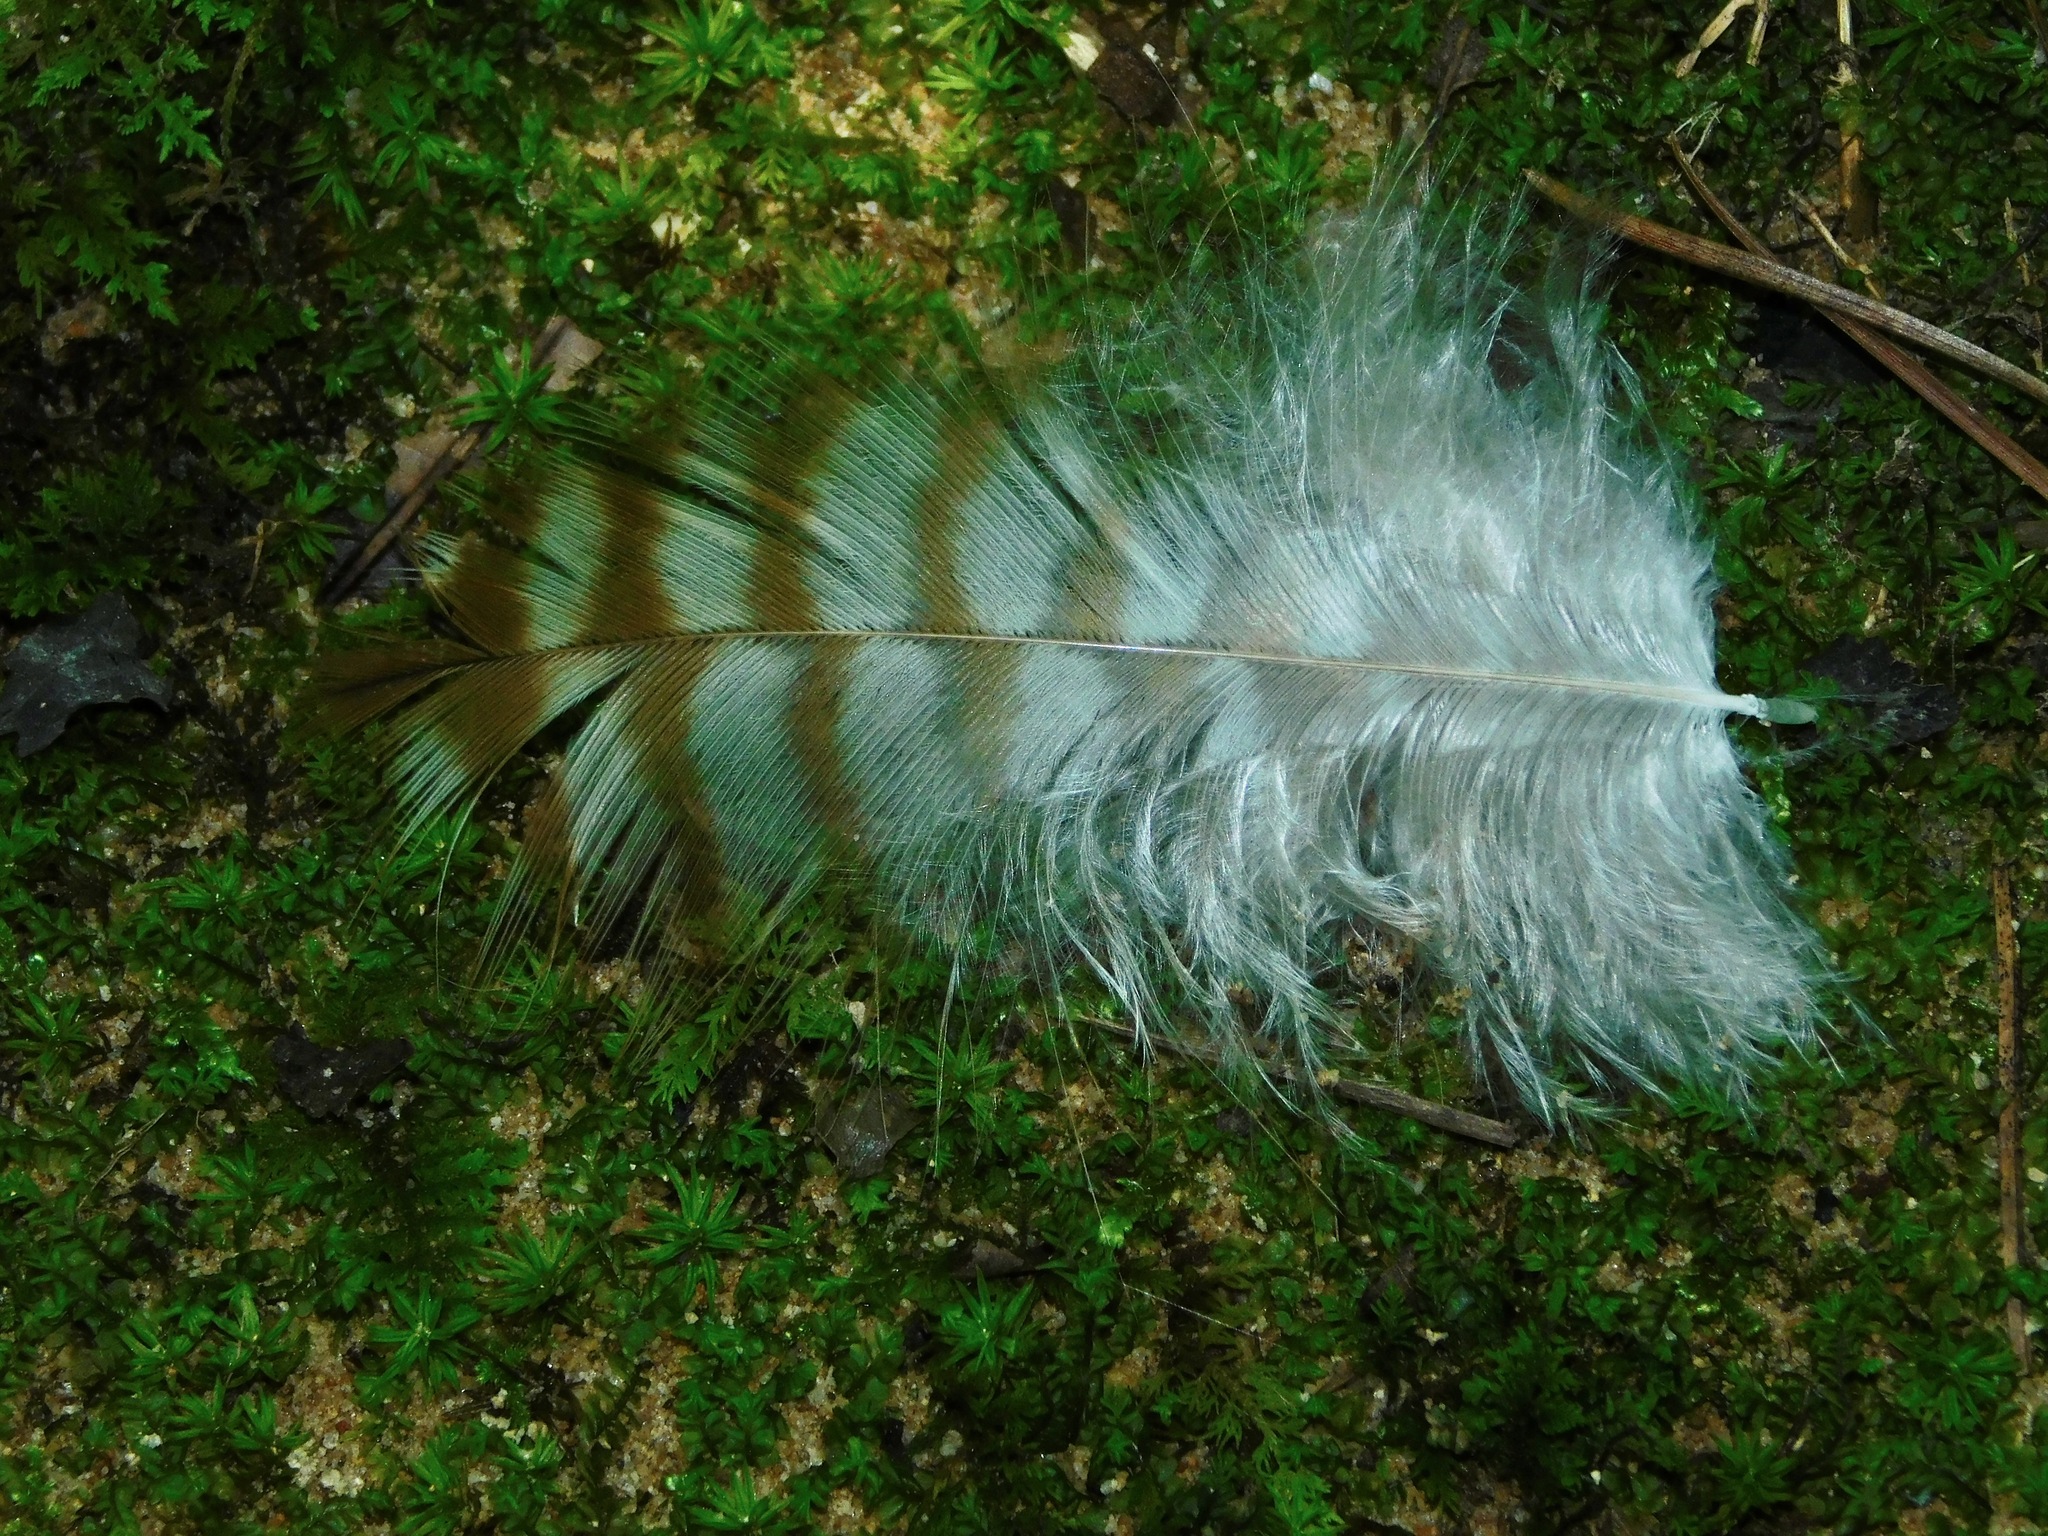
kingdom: Animalia
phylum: Chordata
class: Aves
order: Accipitriformes
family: Accipitridae
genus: Buteo
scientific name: Buteo lineatus
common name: Red-shouldered hawk
